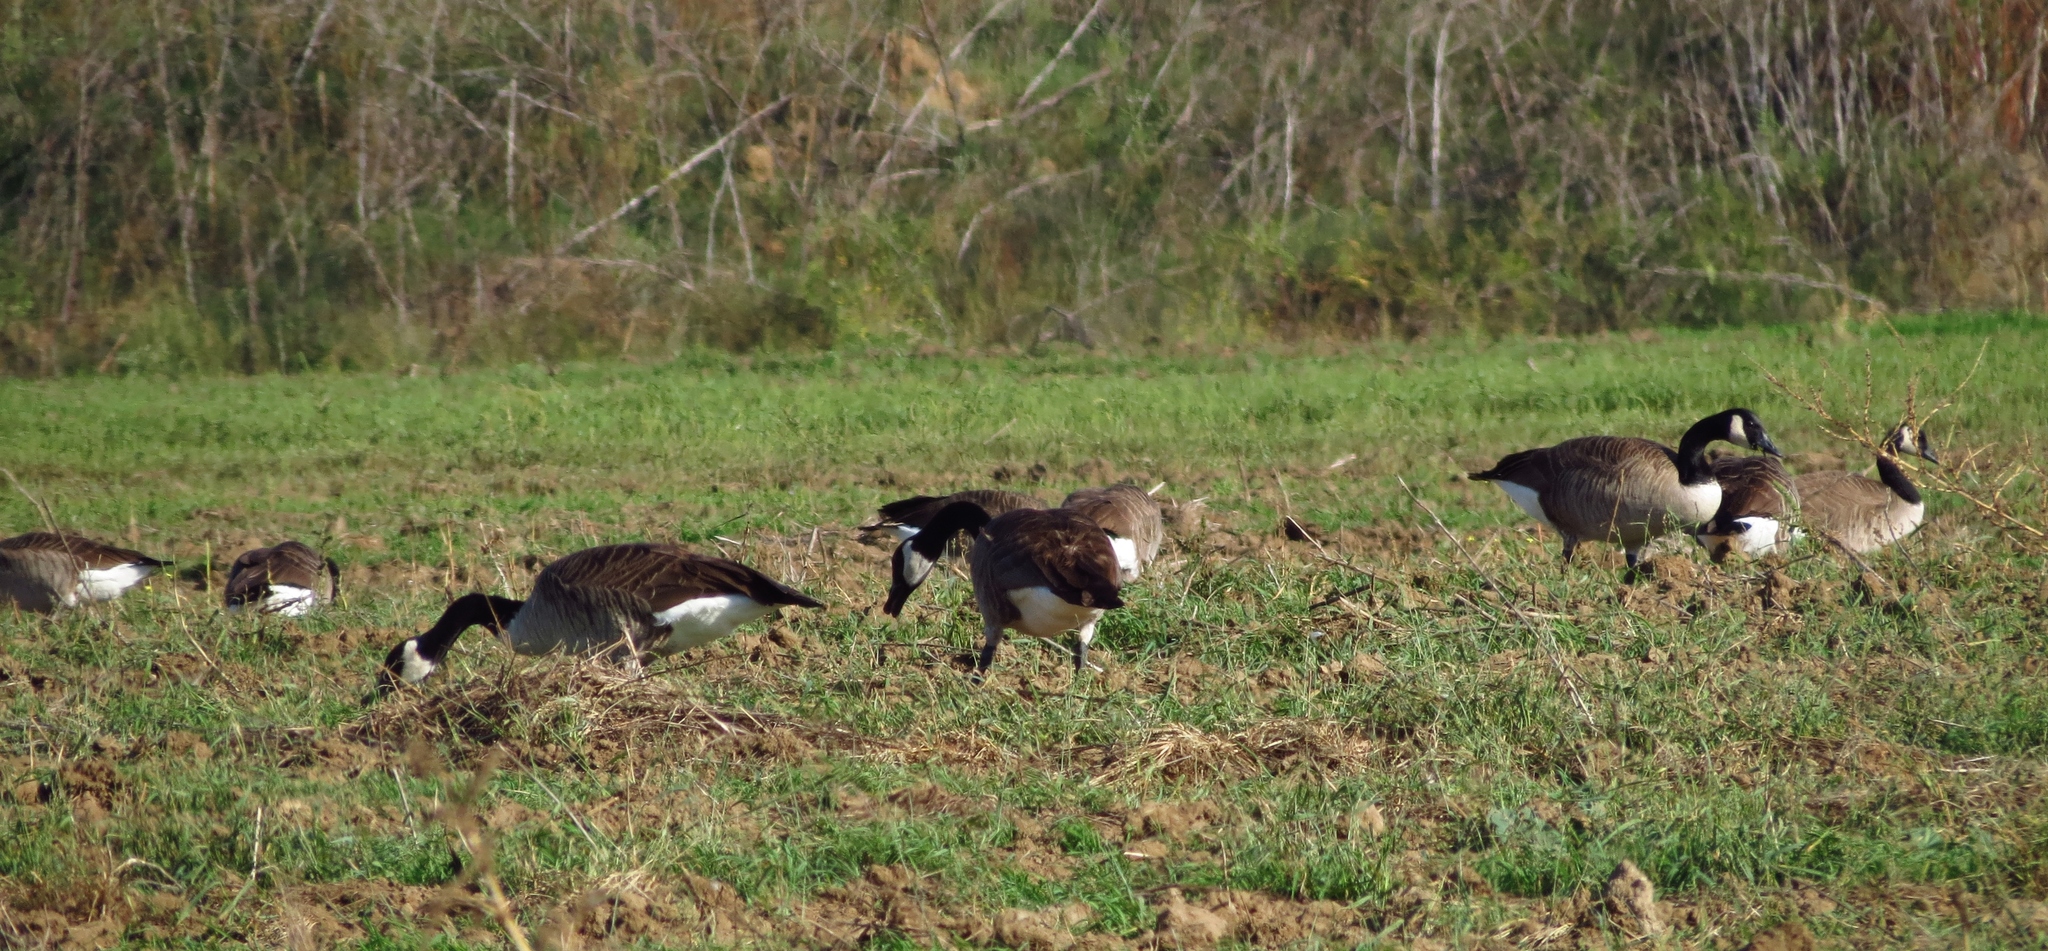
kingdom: Animalia
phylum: Chordata
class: Aves
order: Anseriformes
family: Anatidae
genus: Branta
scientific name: Branta canadensis
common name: Canada goose
